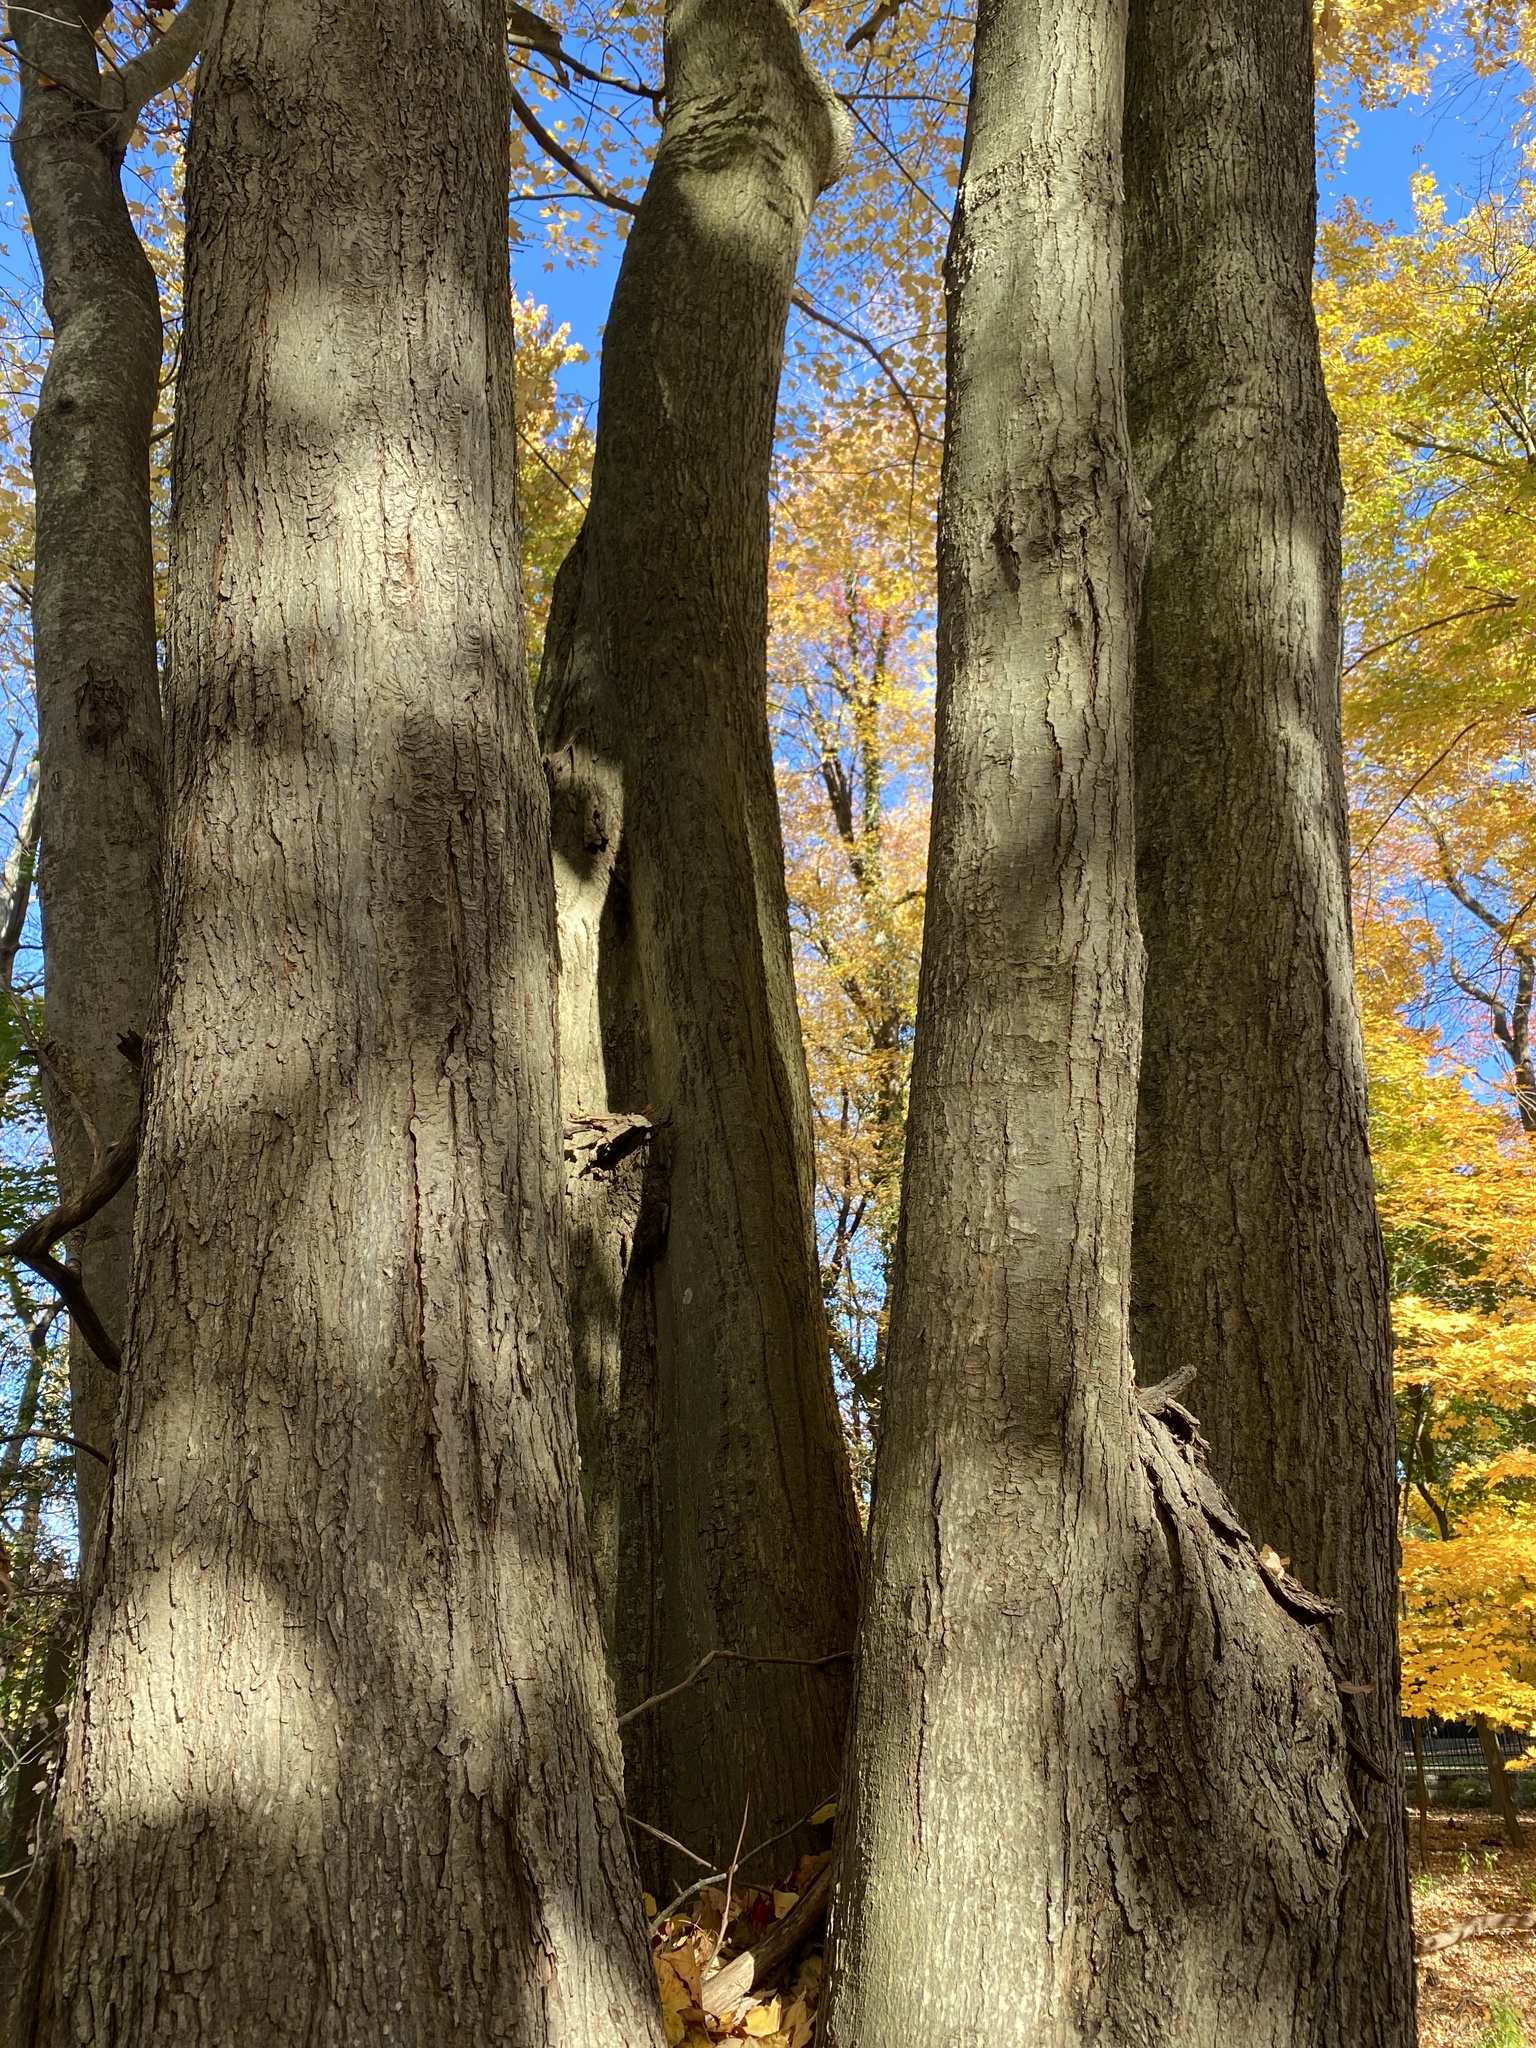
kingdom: Plantae
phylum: Tracheophyta
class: Magnoliopsida
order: Sapindales
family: Sapindaceae
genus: Acer
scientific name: Acer rubrum
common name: Red maple
